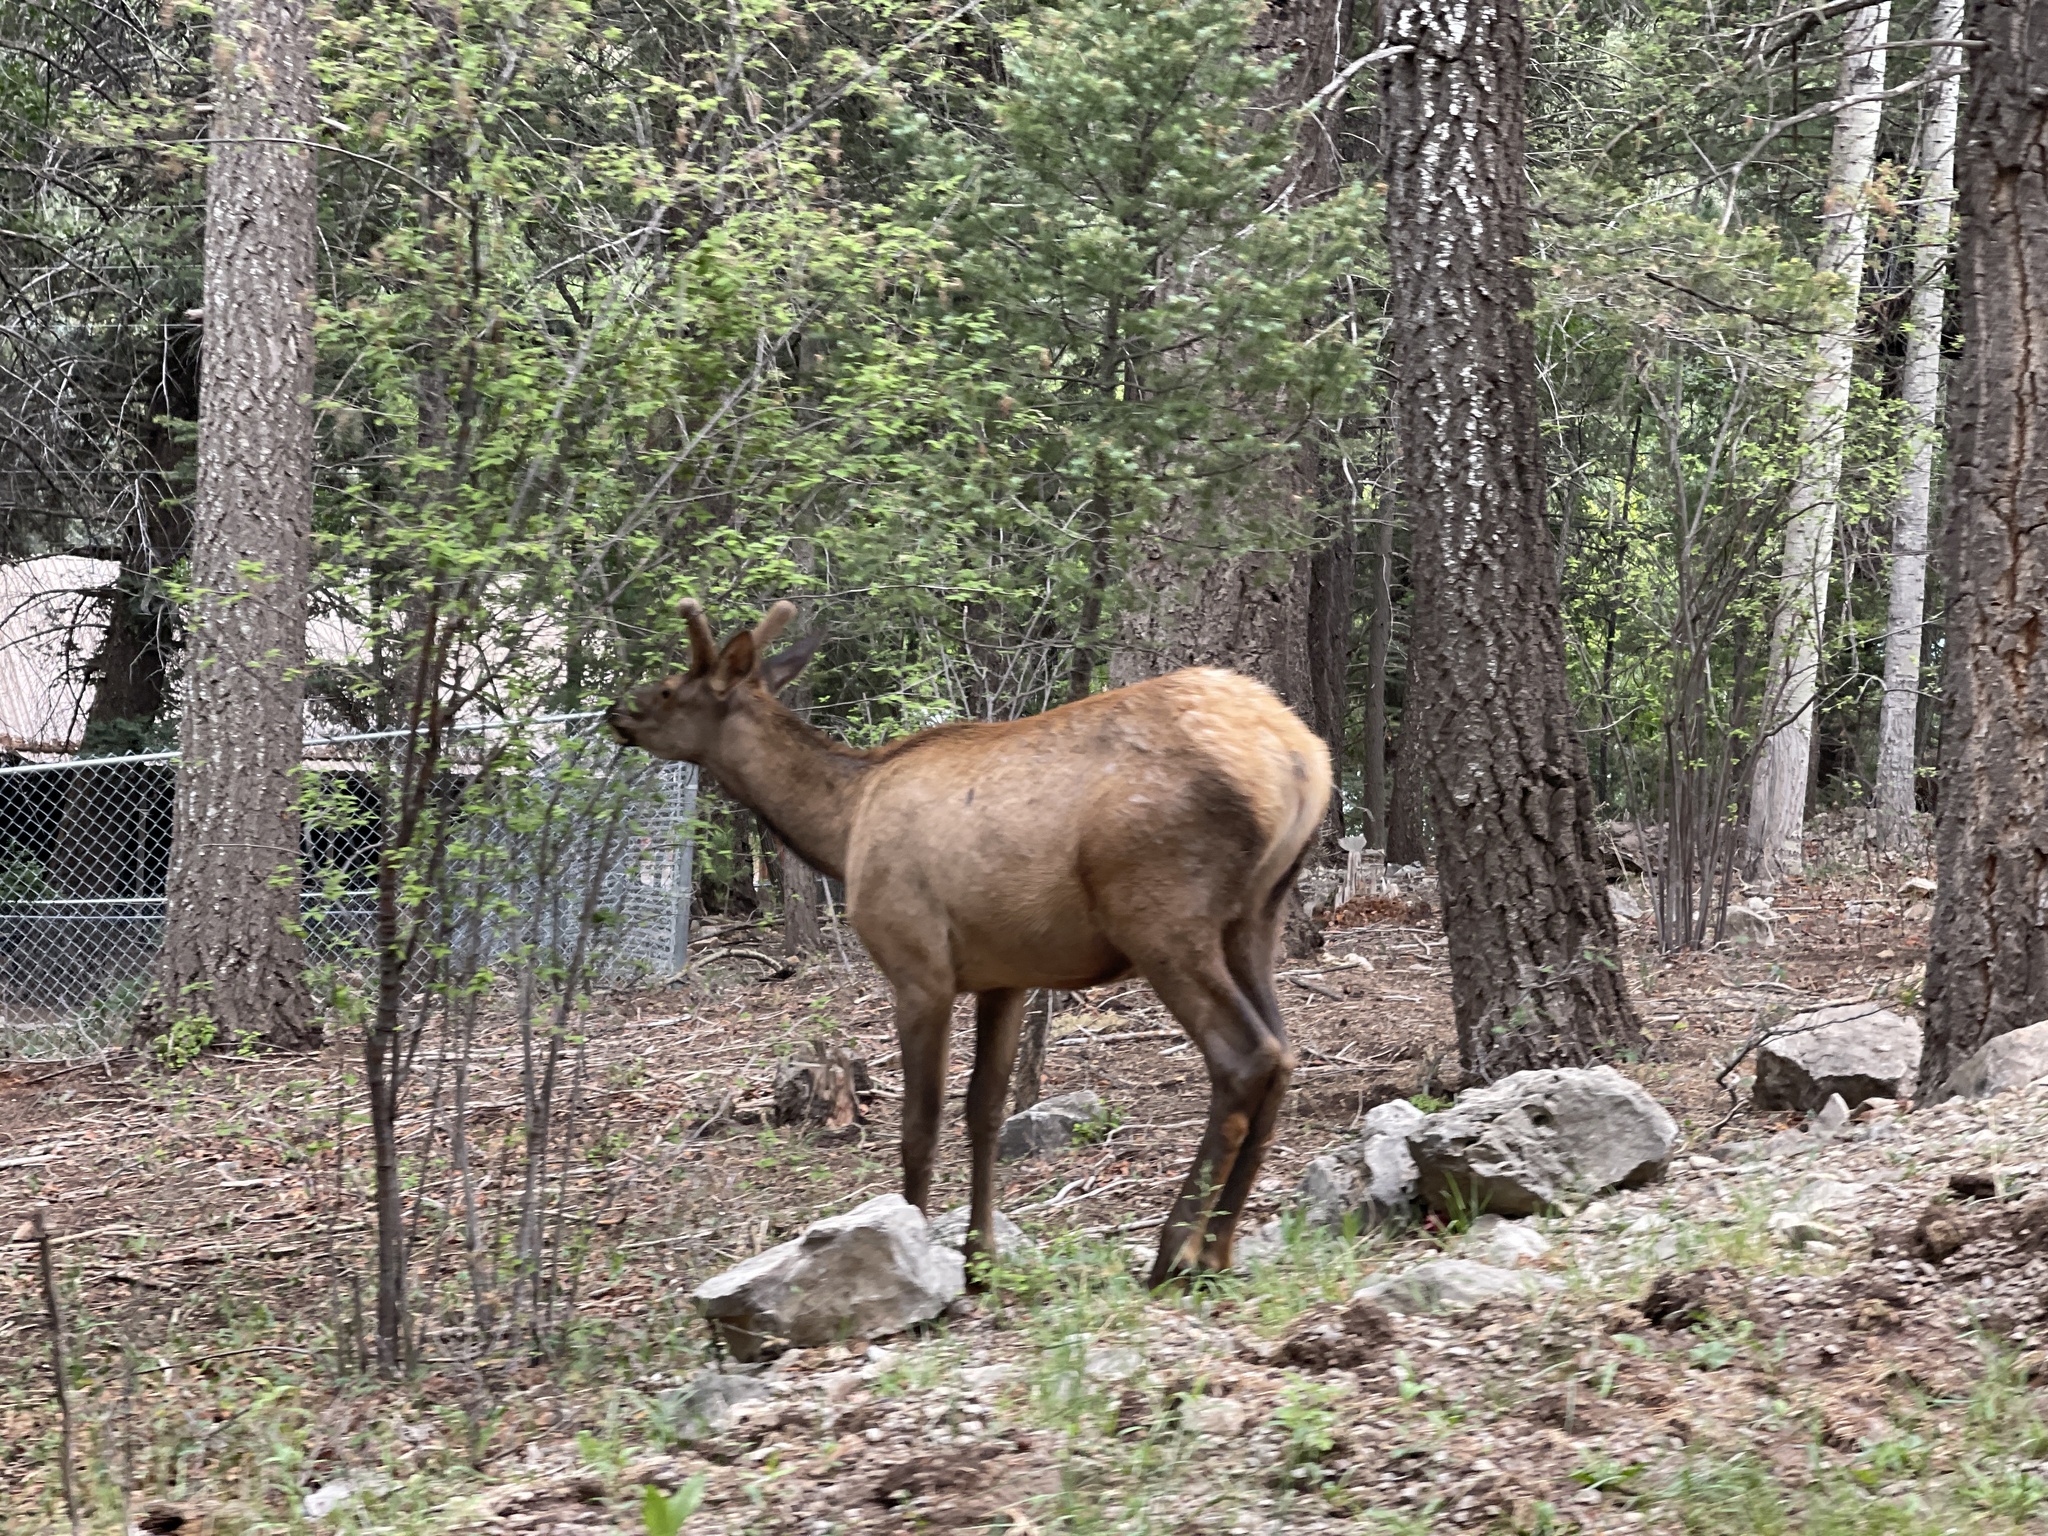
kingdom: Animalia
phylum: Chordata
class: Mammalia
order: Artiodactyla
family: Cervidae
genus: Cervus
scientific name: Cervus elaphus
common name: Red deer
